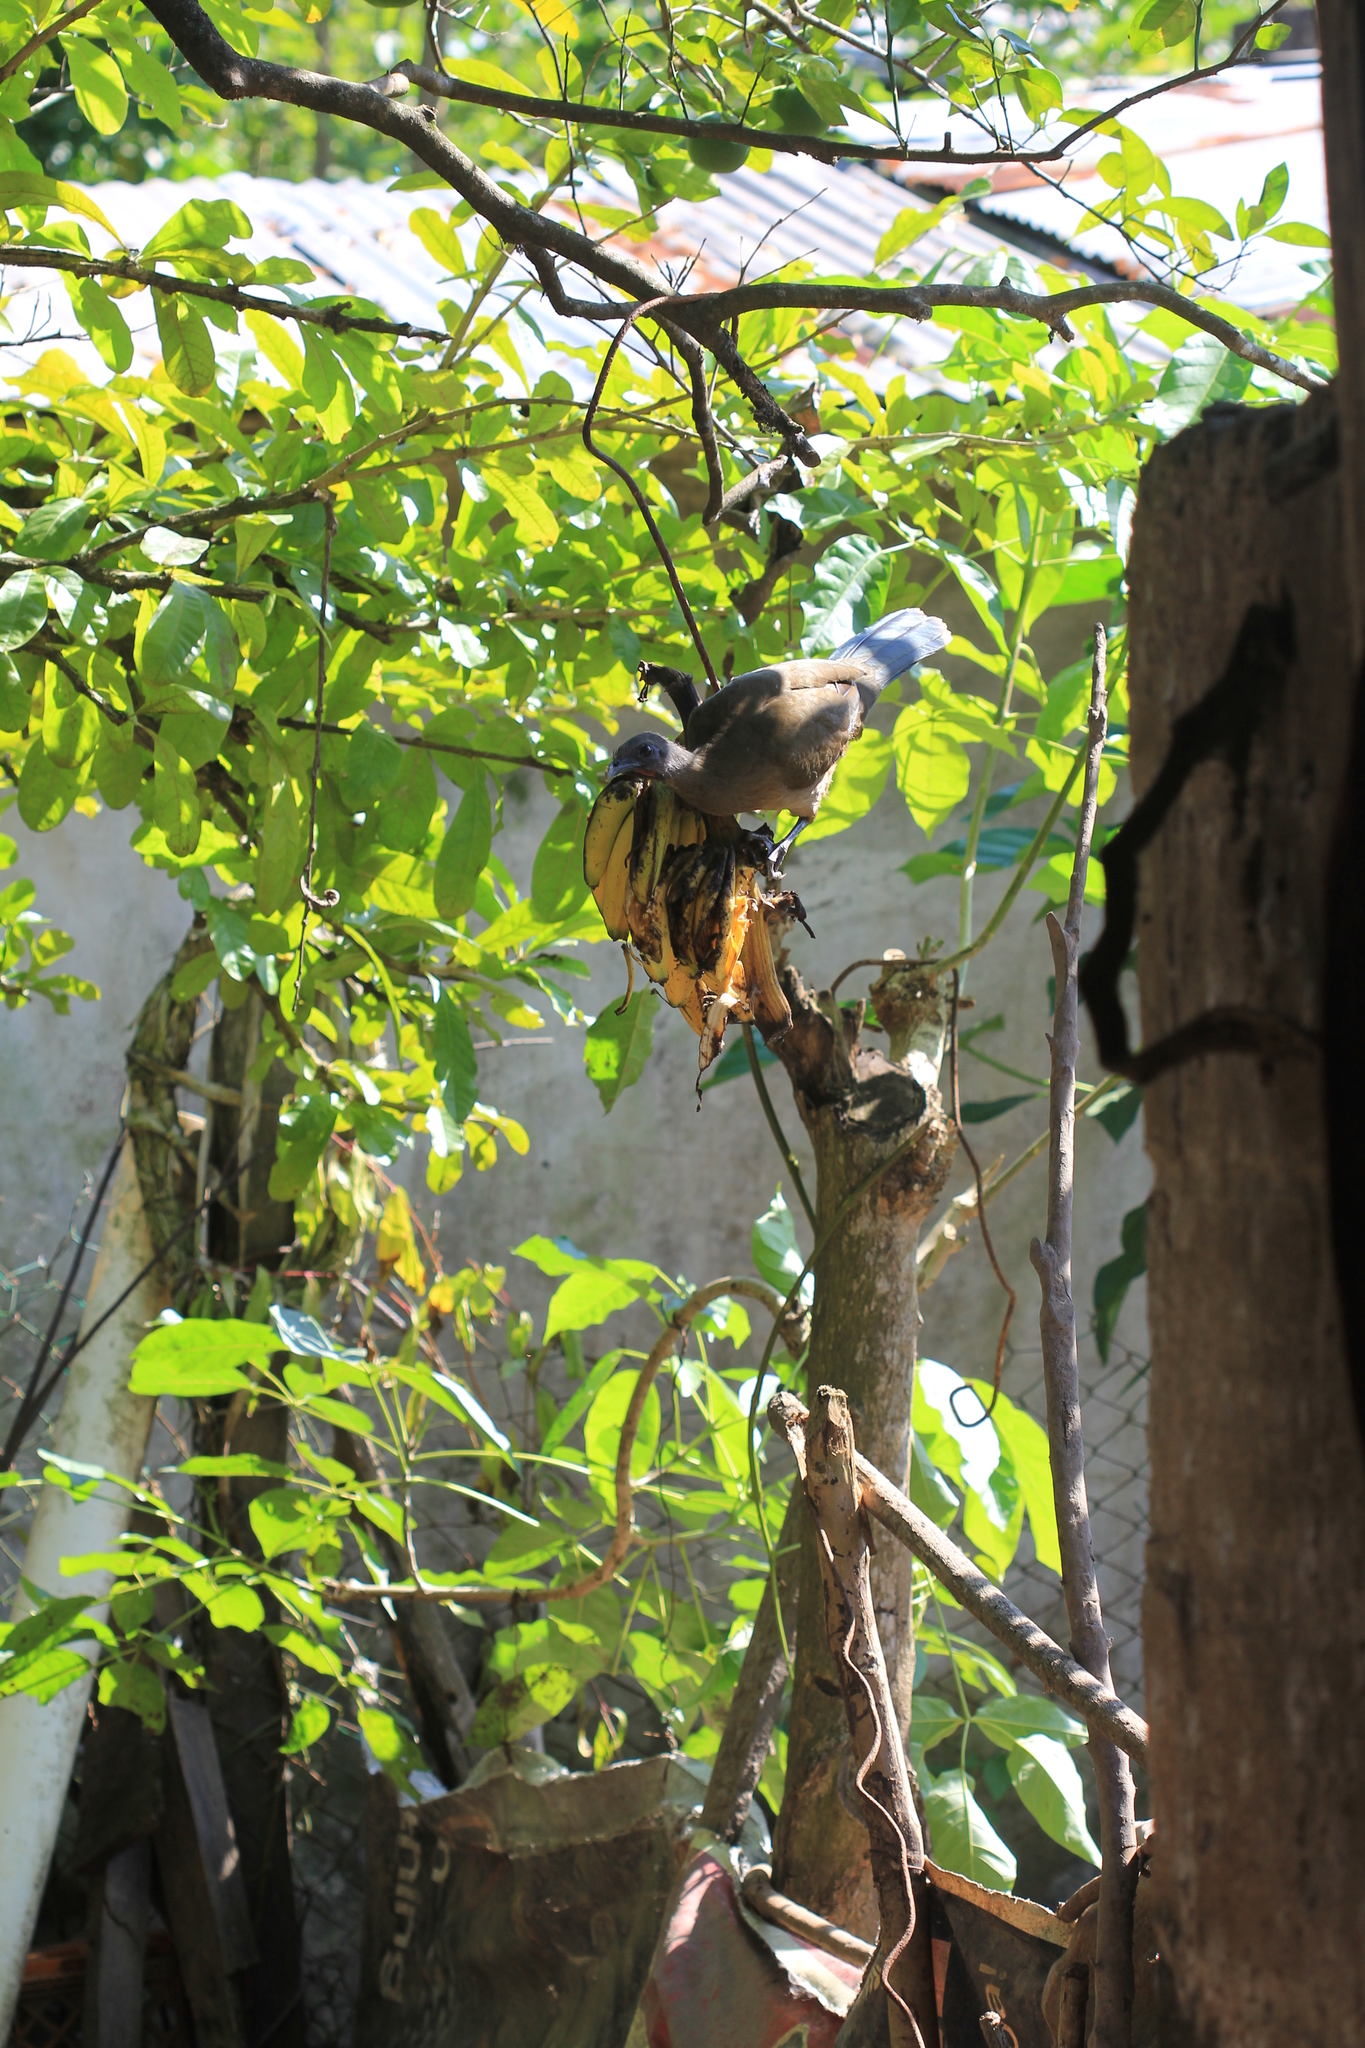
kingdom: Animalia
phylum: Chordata
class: Aves
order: Galliformes
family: Cracidae
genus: Ortalis
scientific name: Ortalis vetula
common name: Plain chachalaca
